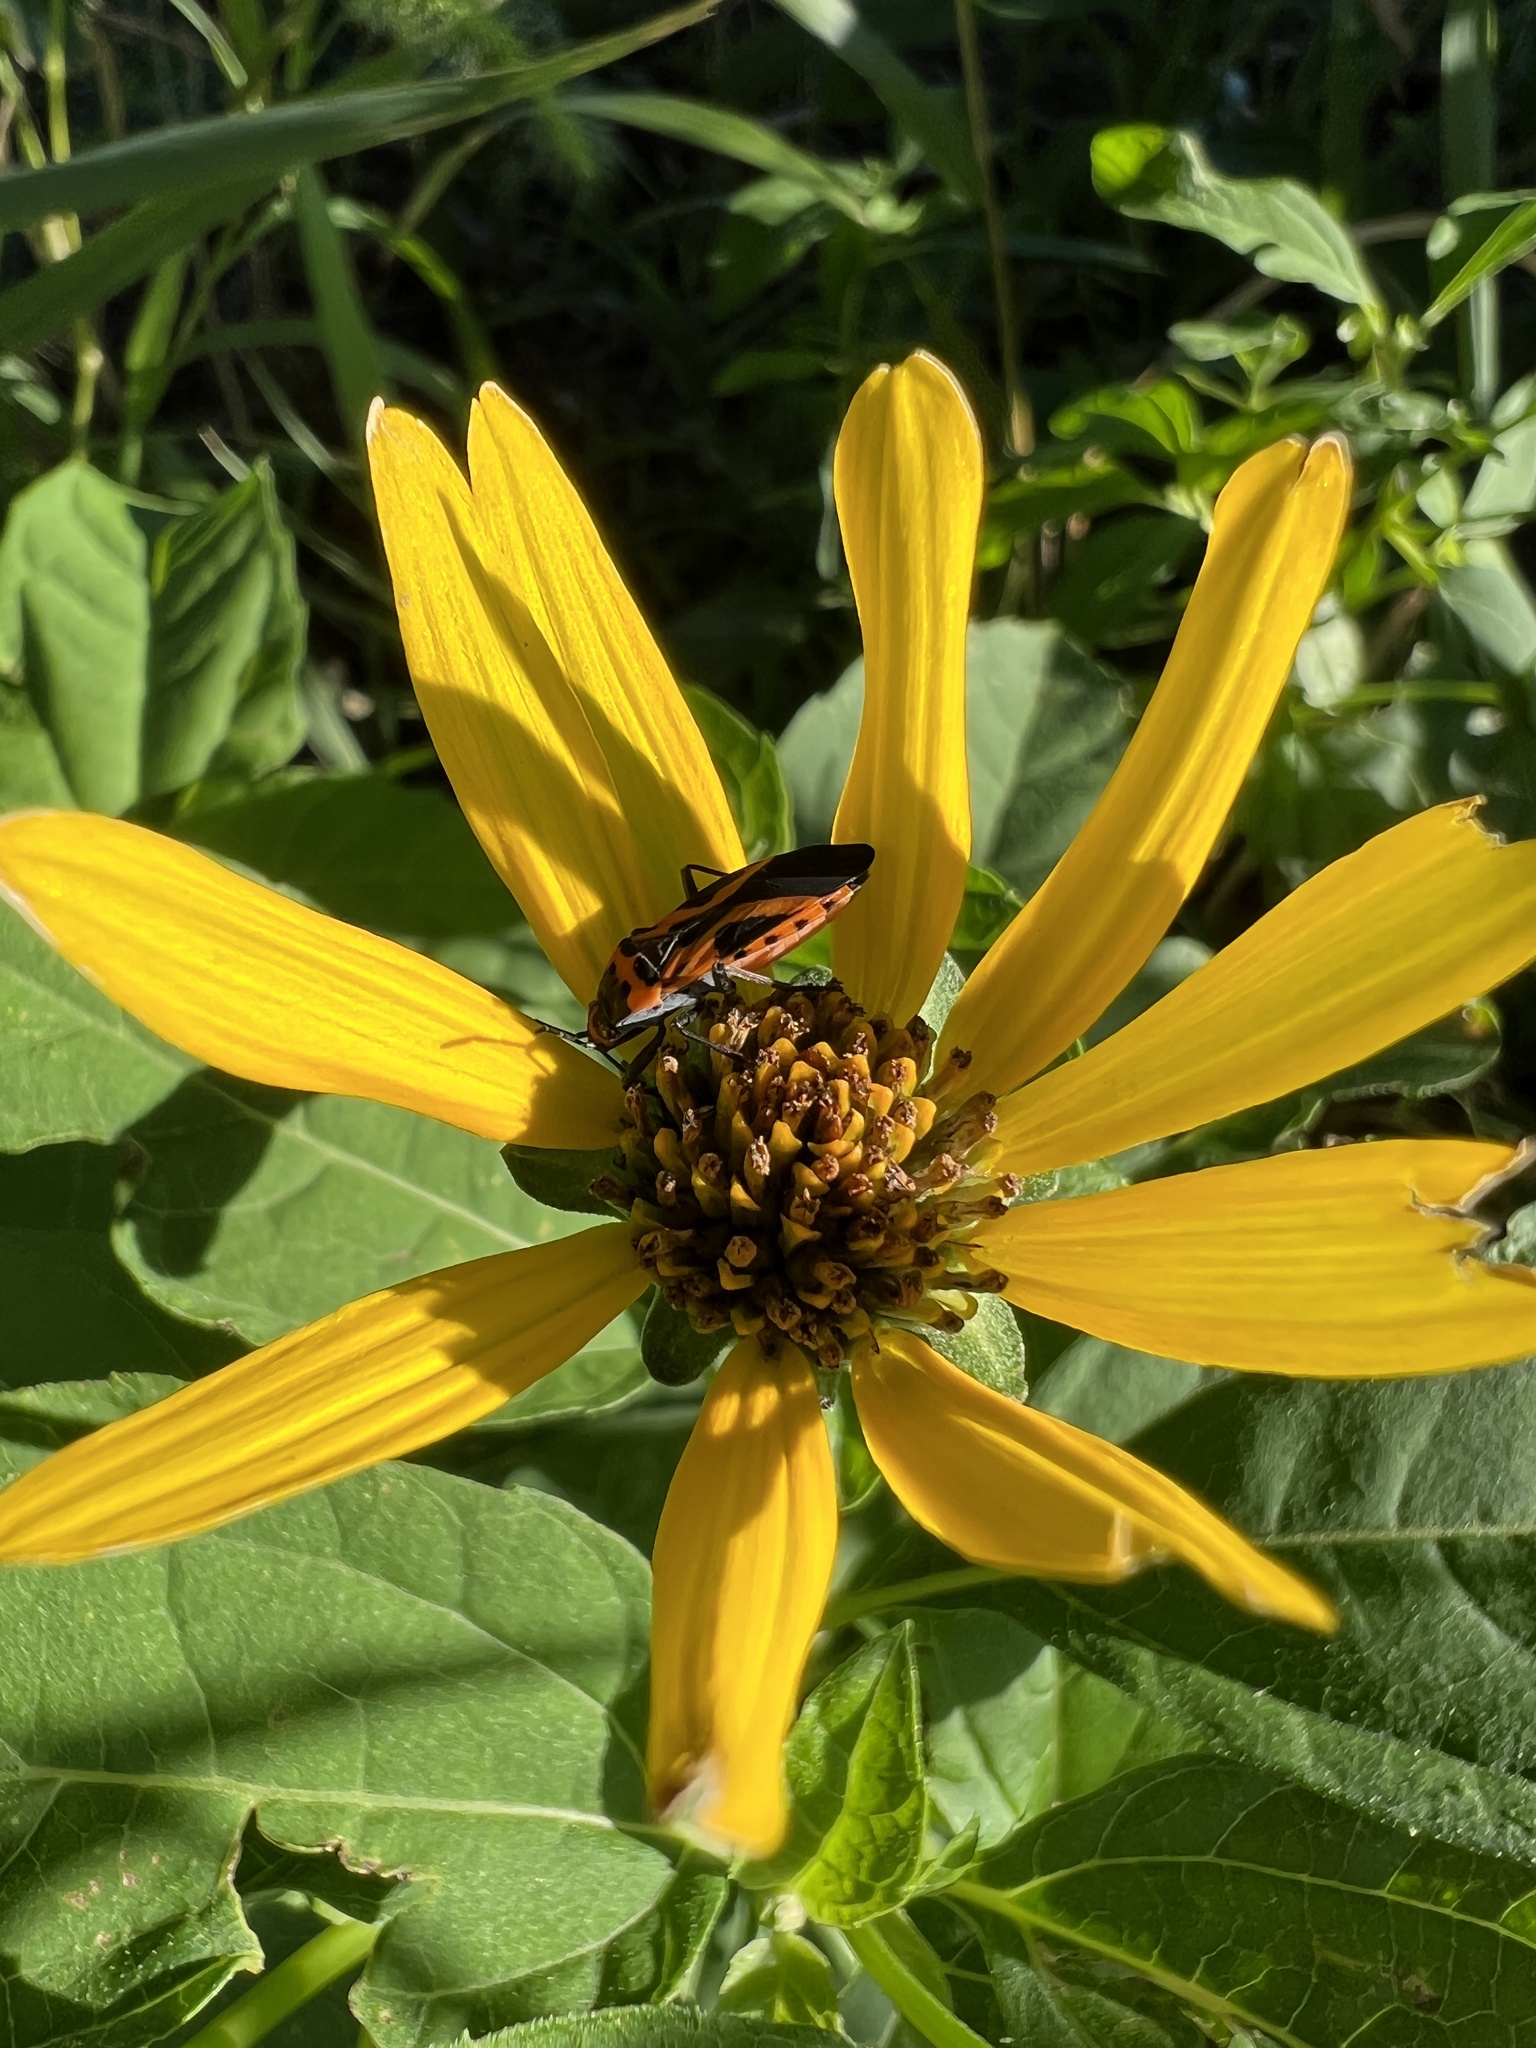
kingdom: Animalia
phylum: Arthropoda
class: Insecta
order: Hemiptera
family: Lygaeidae
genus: Lygaeus
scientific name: Lygaeus turcicus
